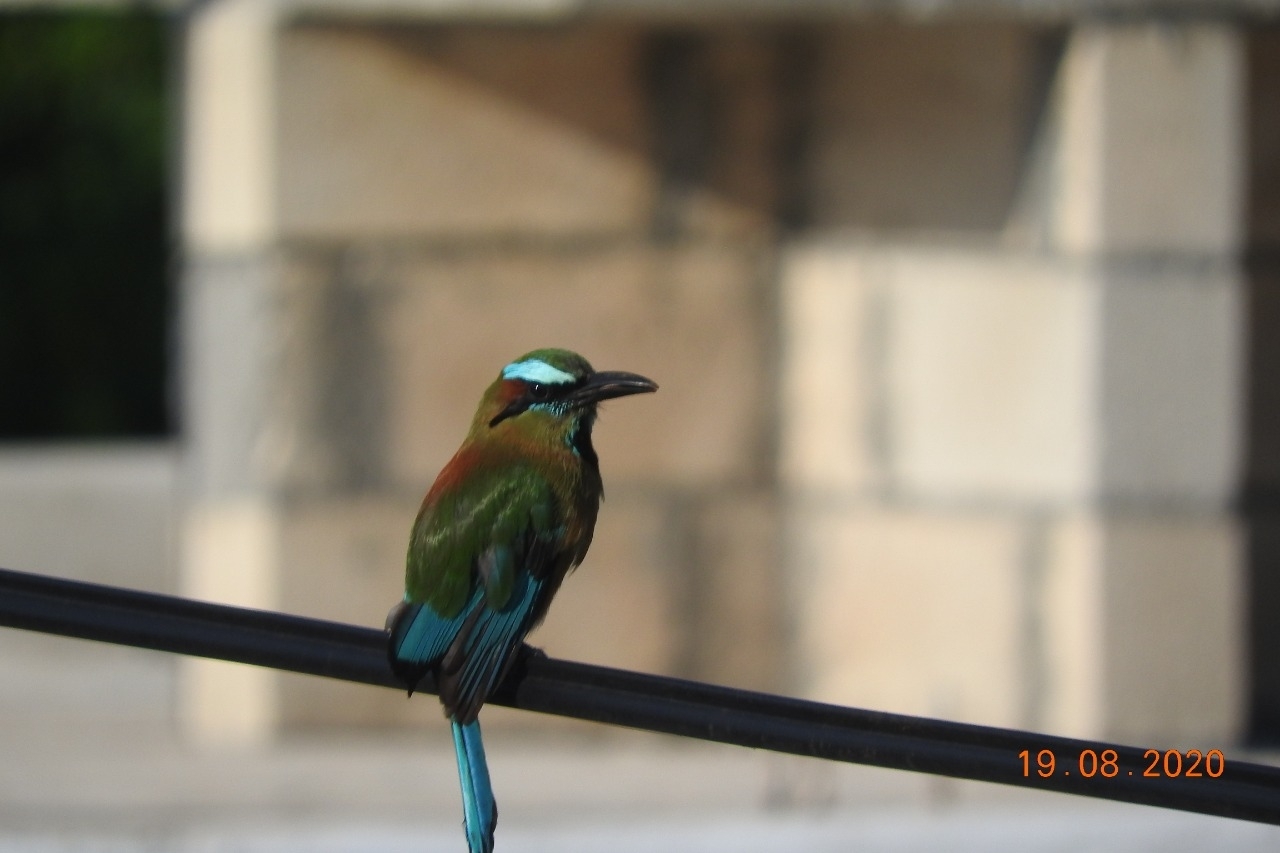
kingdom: Animalia
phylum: Chordata
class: Aves
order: Coraciiformes
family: Momotidae
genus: Eumomota
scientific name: Eumomota superciliosa
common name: Turquoise-browed motmot
